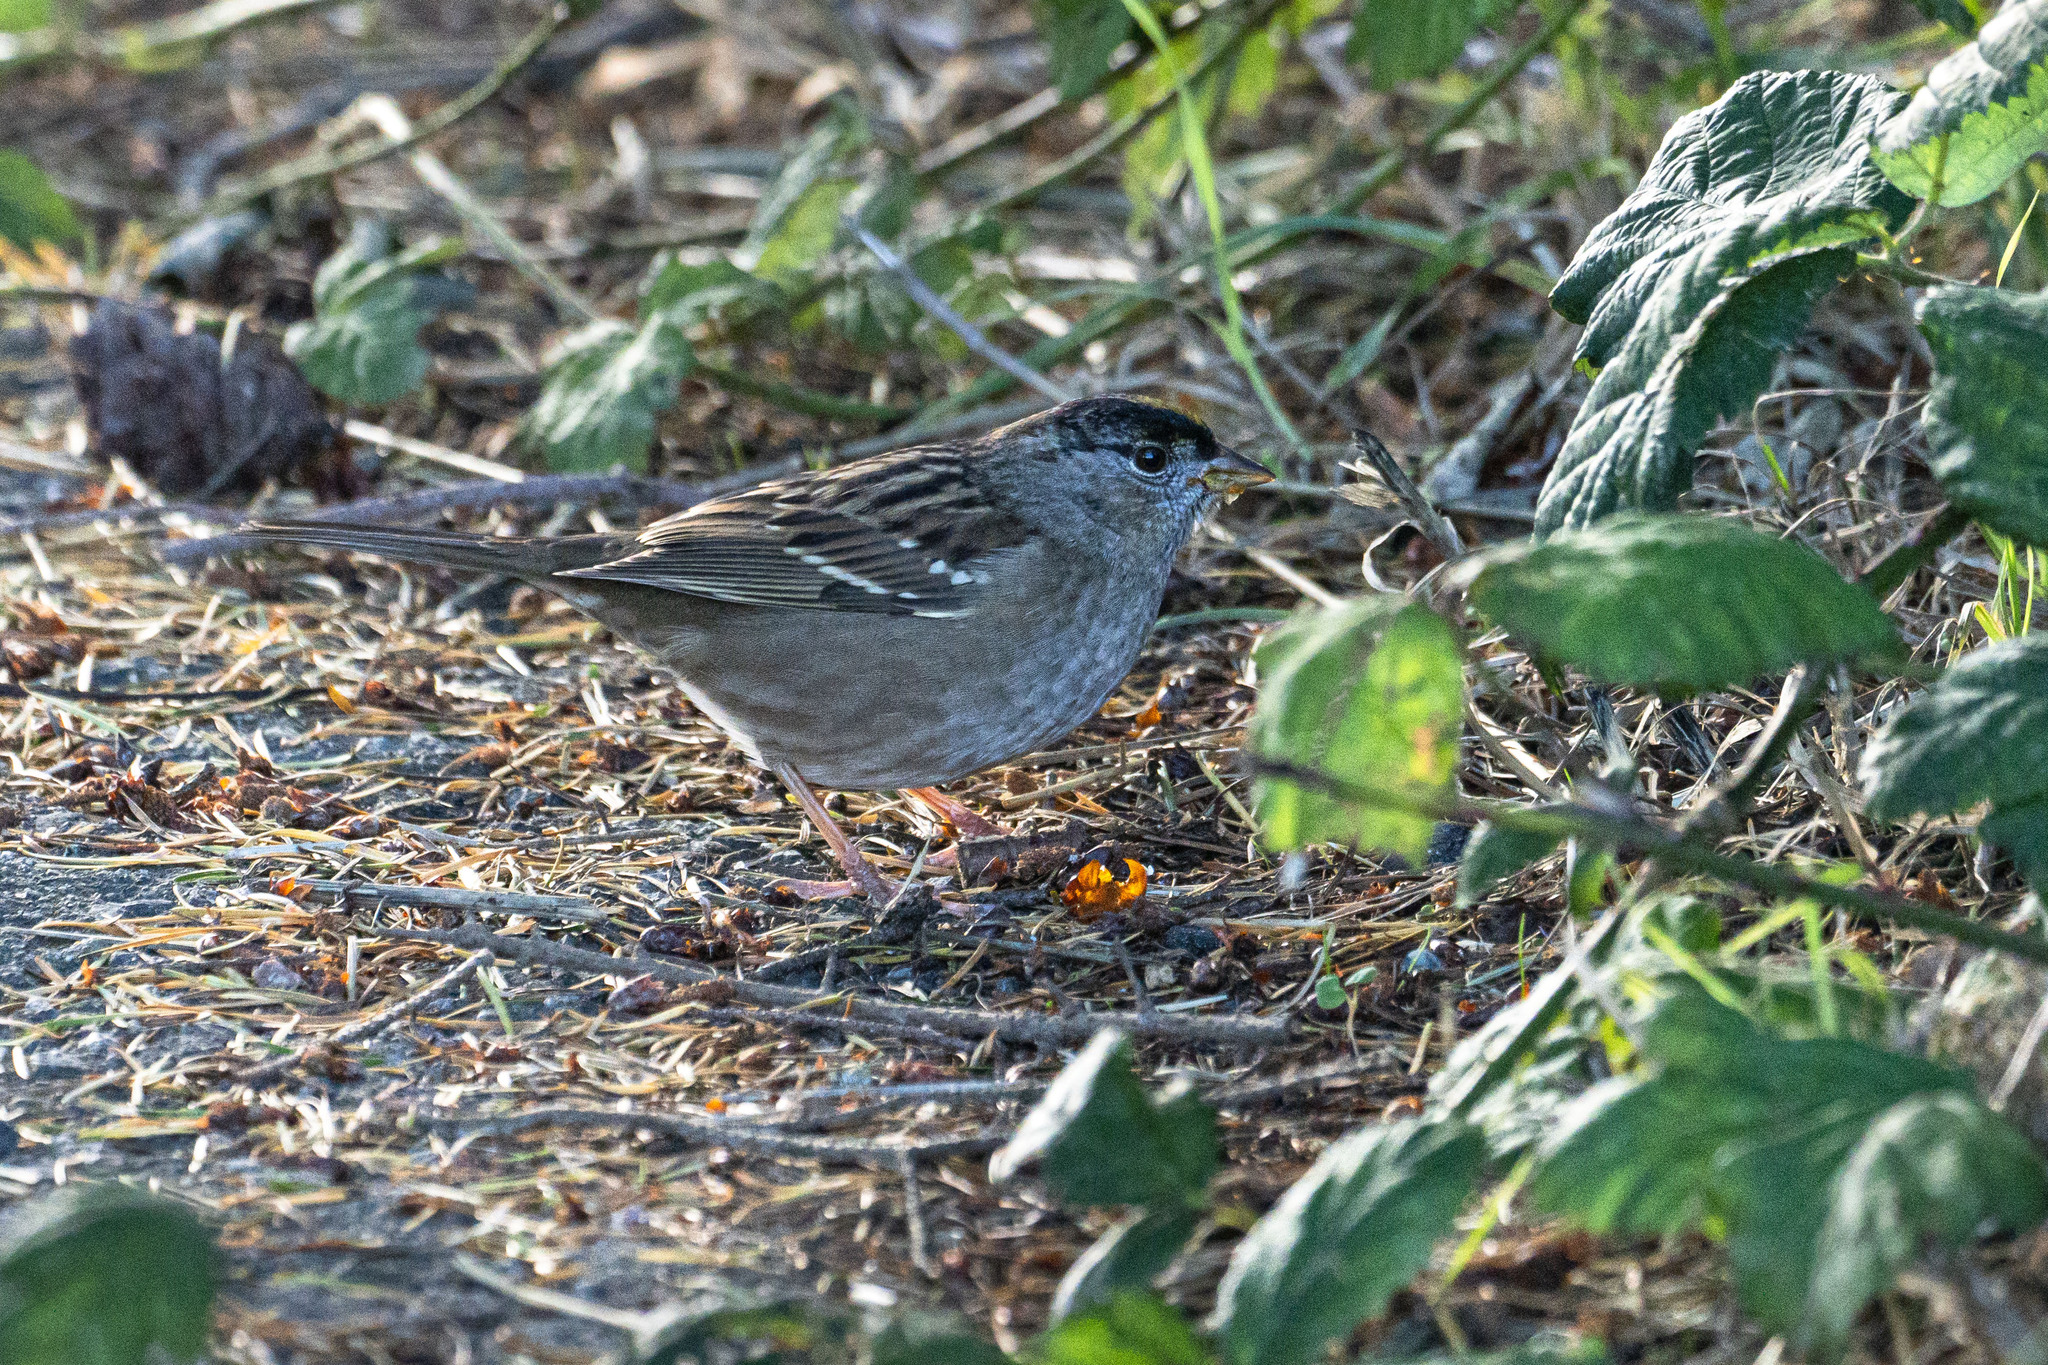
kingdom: Animalia
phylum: Chordata
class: Aves
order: Passeriformes
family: Passerellidae
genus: Zonotrichia
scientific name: Zonotrichia atricapilla
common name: Golden-crowned sparrow
